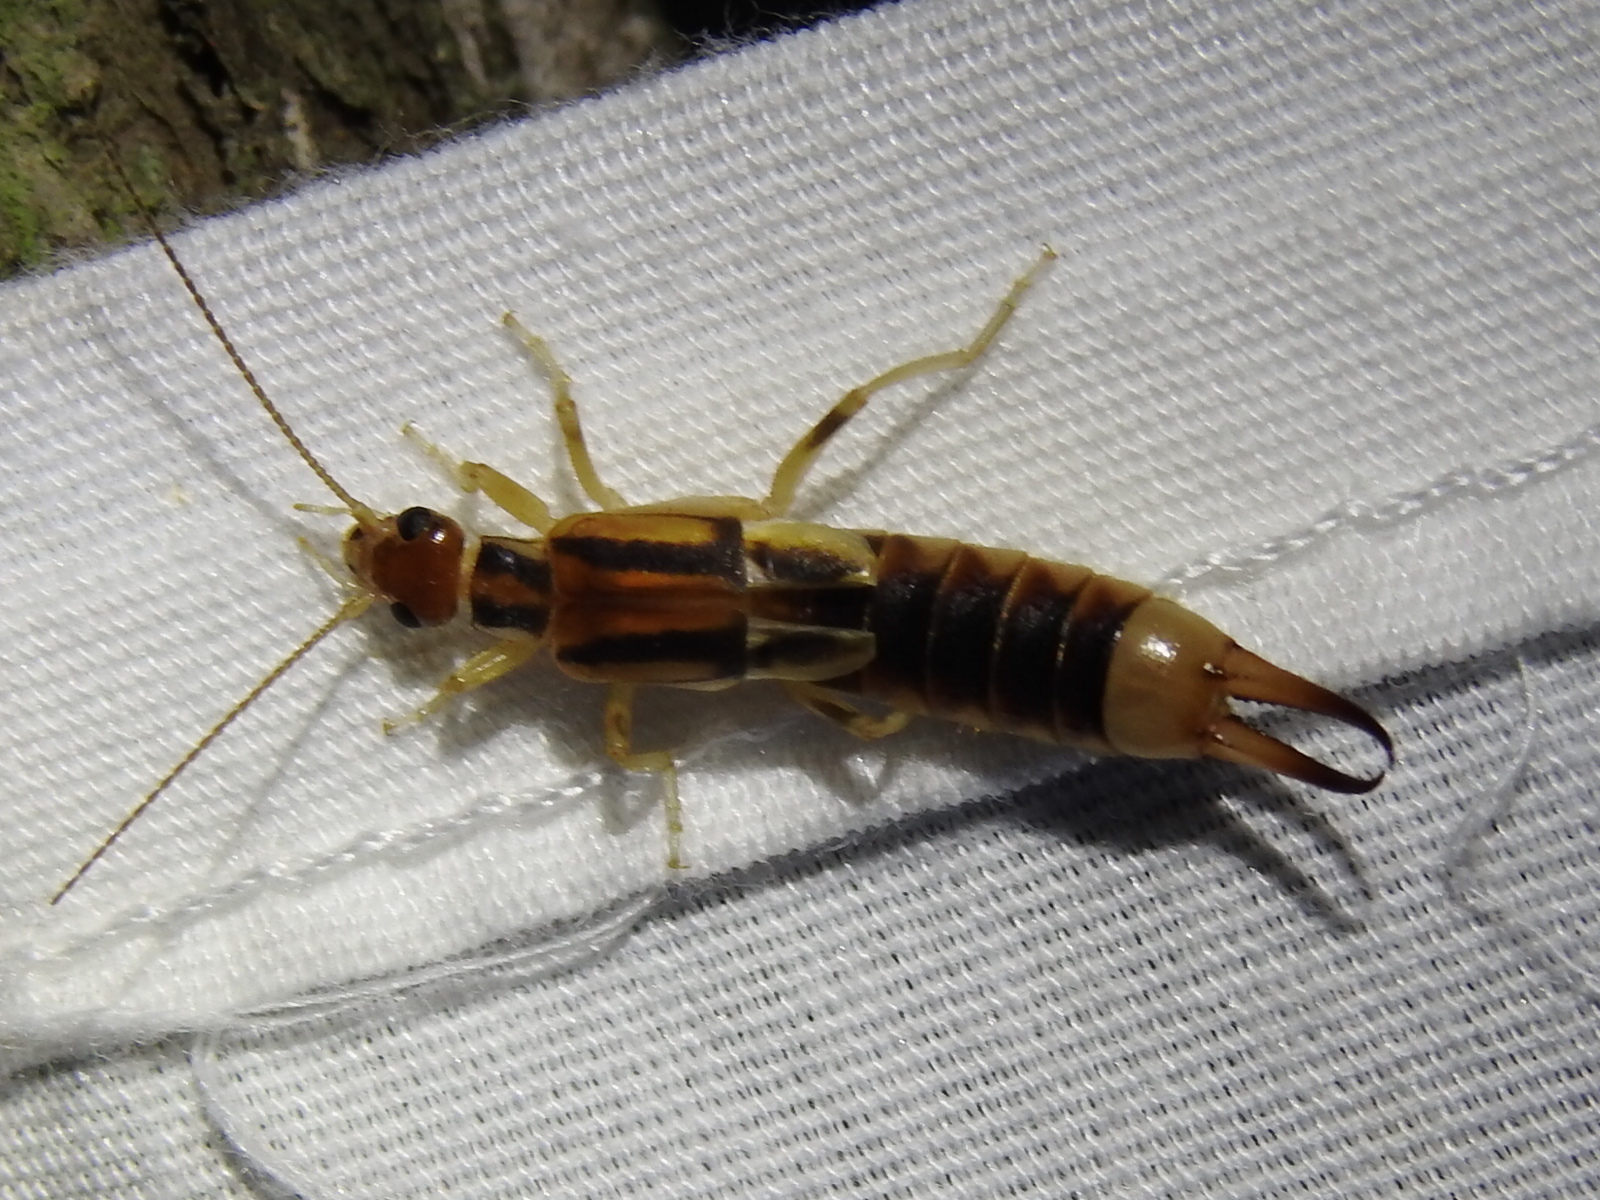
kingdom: Animalia
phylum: Arthropoda
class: Insecta
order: Dermaptera
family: Labiduridae
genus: Labidura
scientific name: Labidura riparia
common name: Striped earwig
